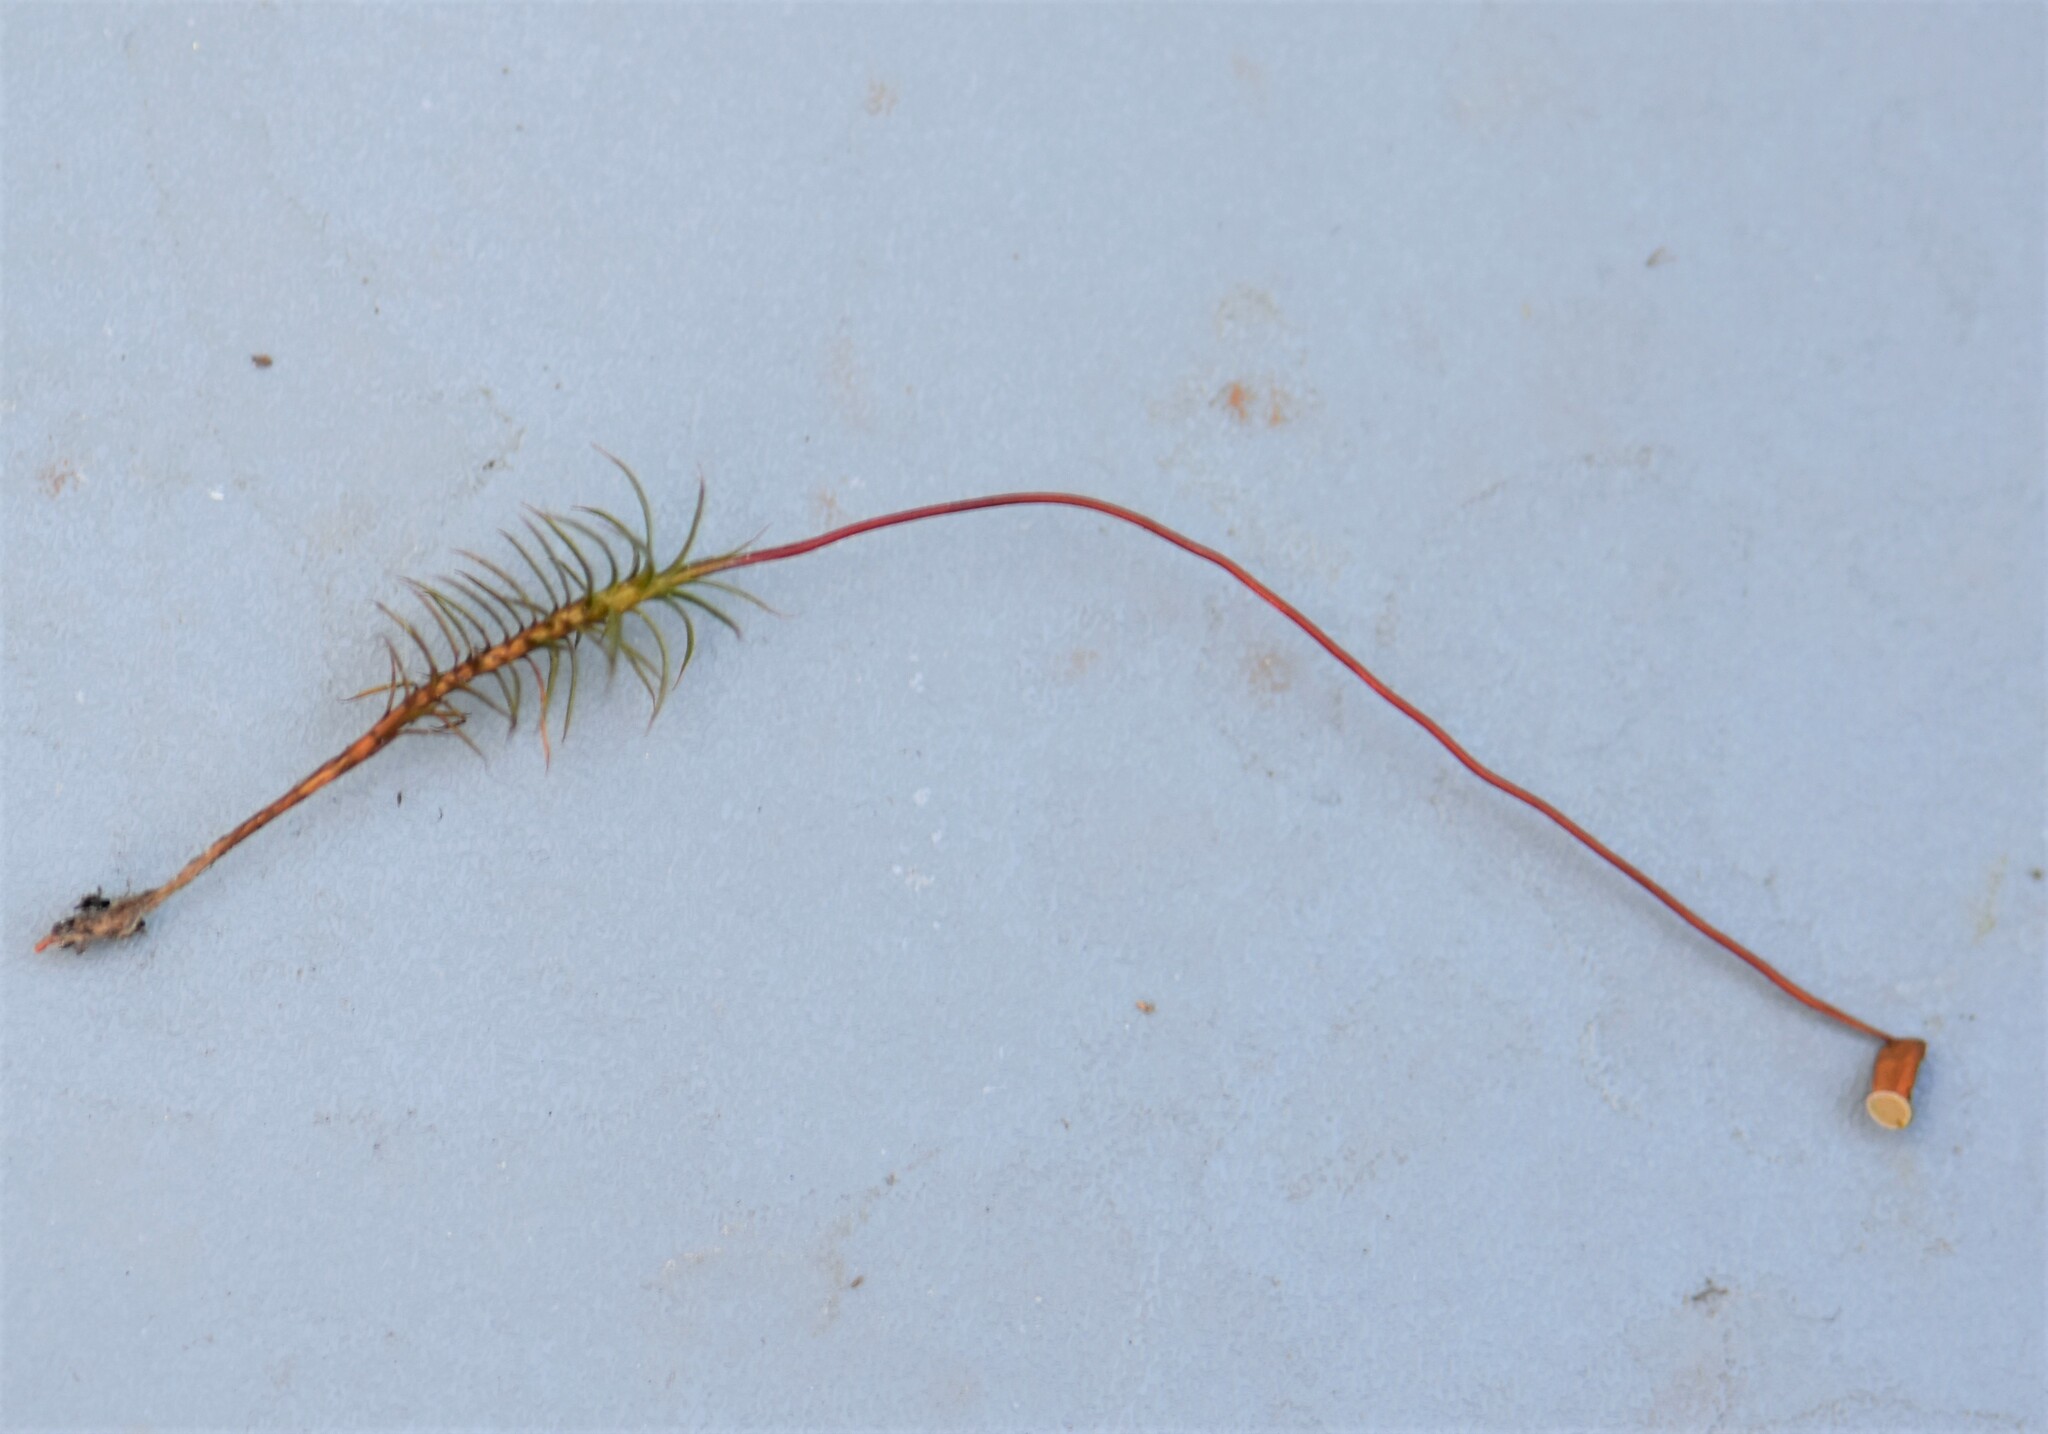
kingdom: Plantae
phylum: Bryophyta
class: Polytrichopsida
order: Polytrichales
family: Polytrichaceae
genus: Polytrichum
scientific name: Polytrichum juniperinum
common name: Juniper haircap moss
